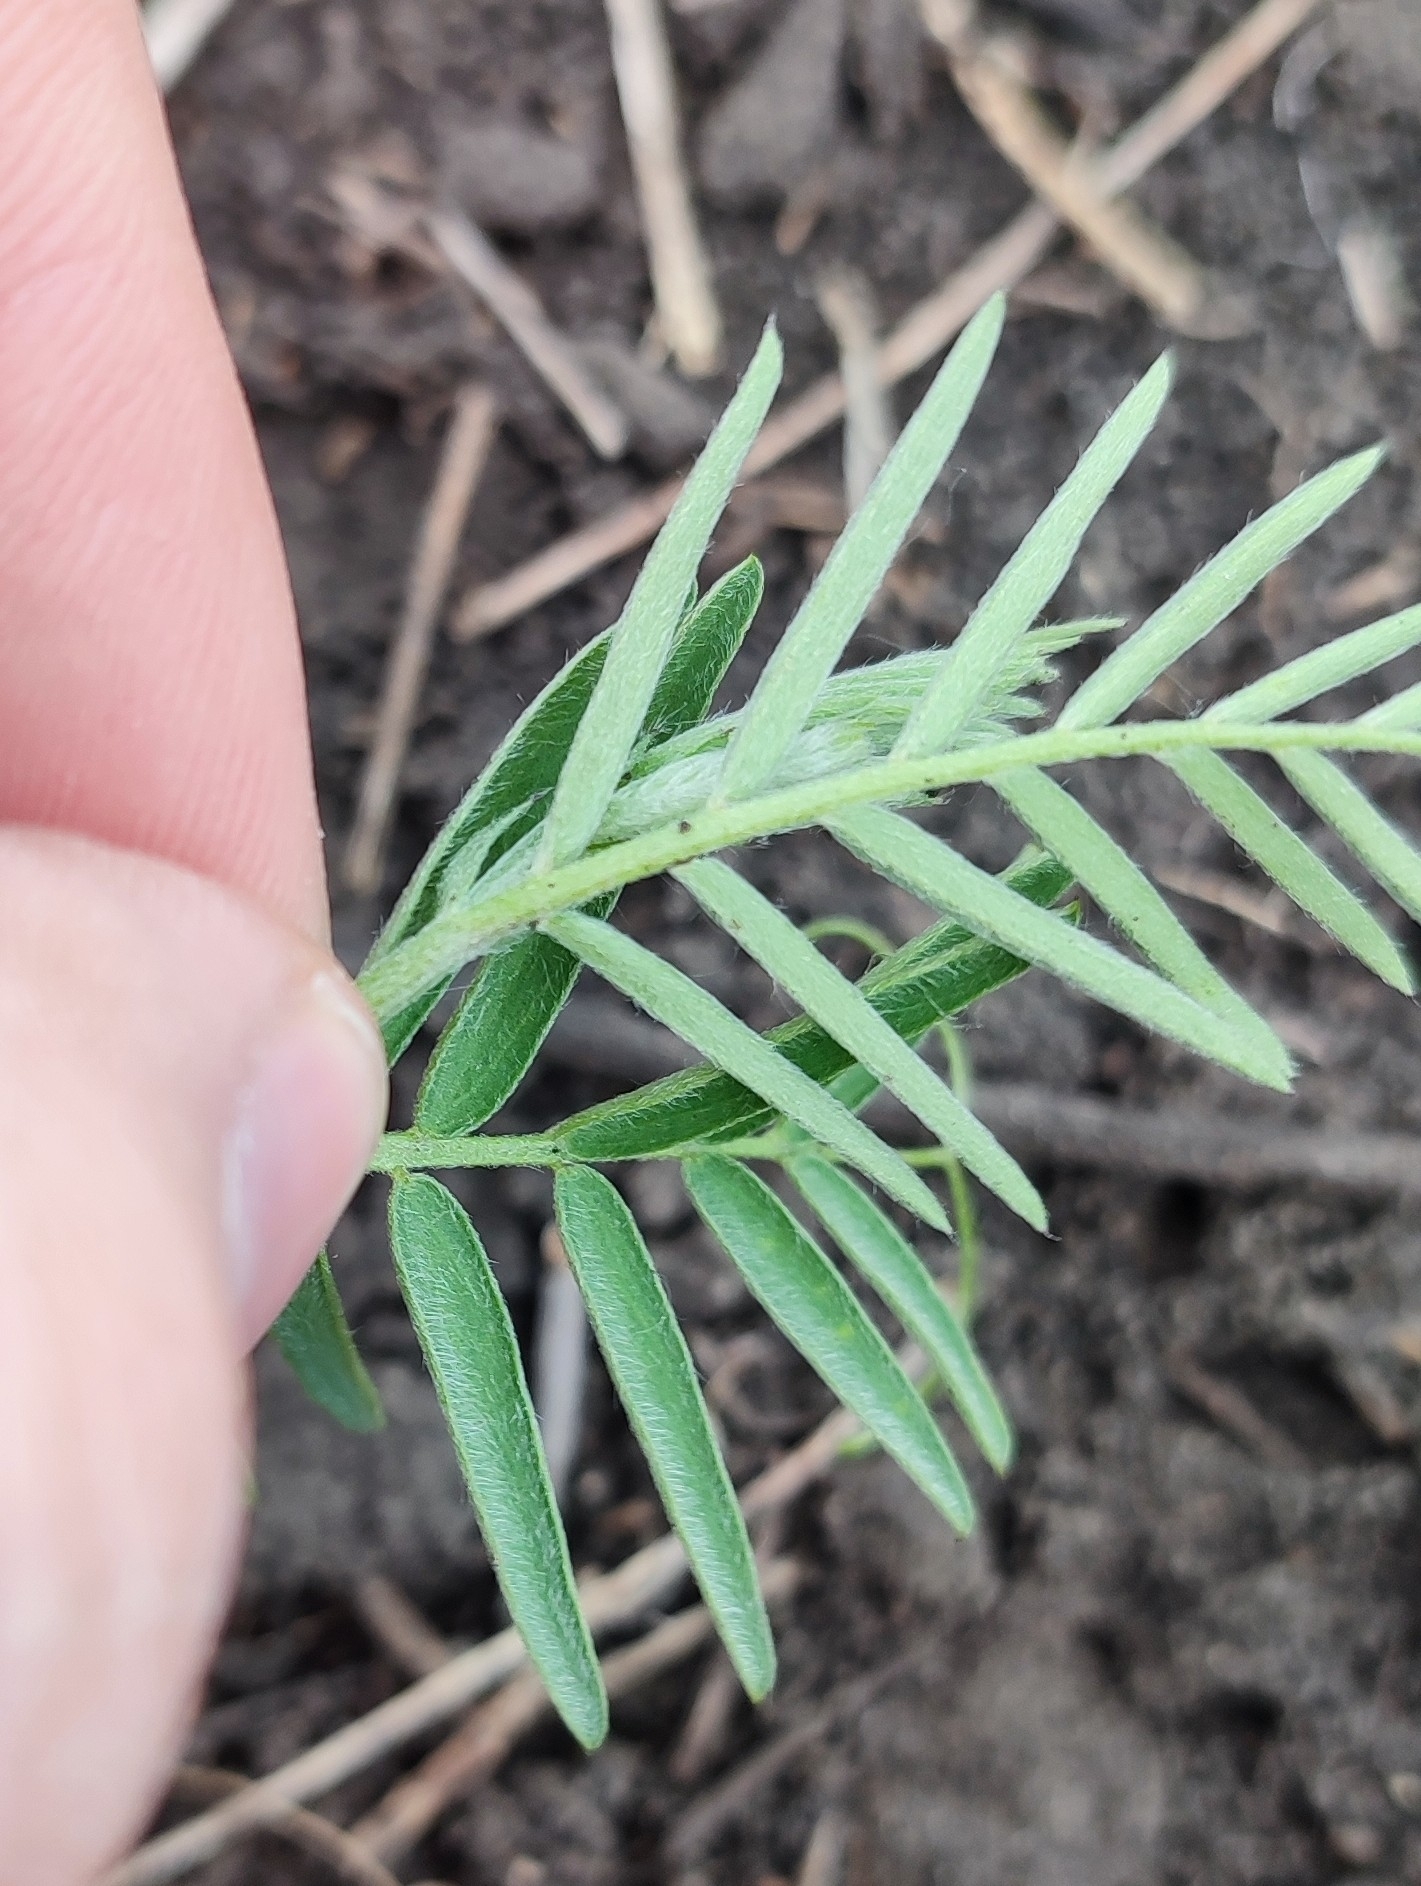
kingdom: Plantae
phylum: Tracheophyta
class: Magnoliopsida
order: Fabales
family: Fabaceae
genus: Vicia
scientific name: Vicia cracca
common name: Bird vetch
